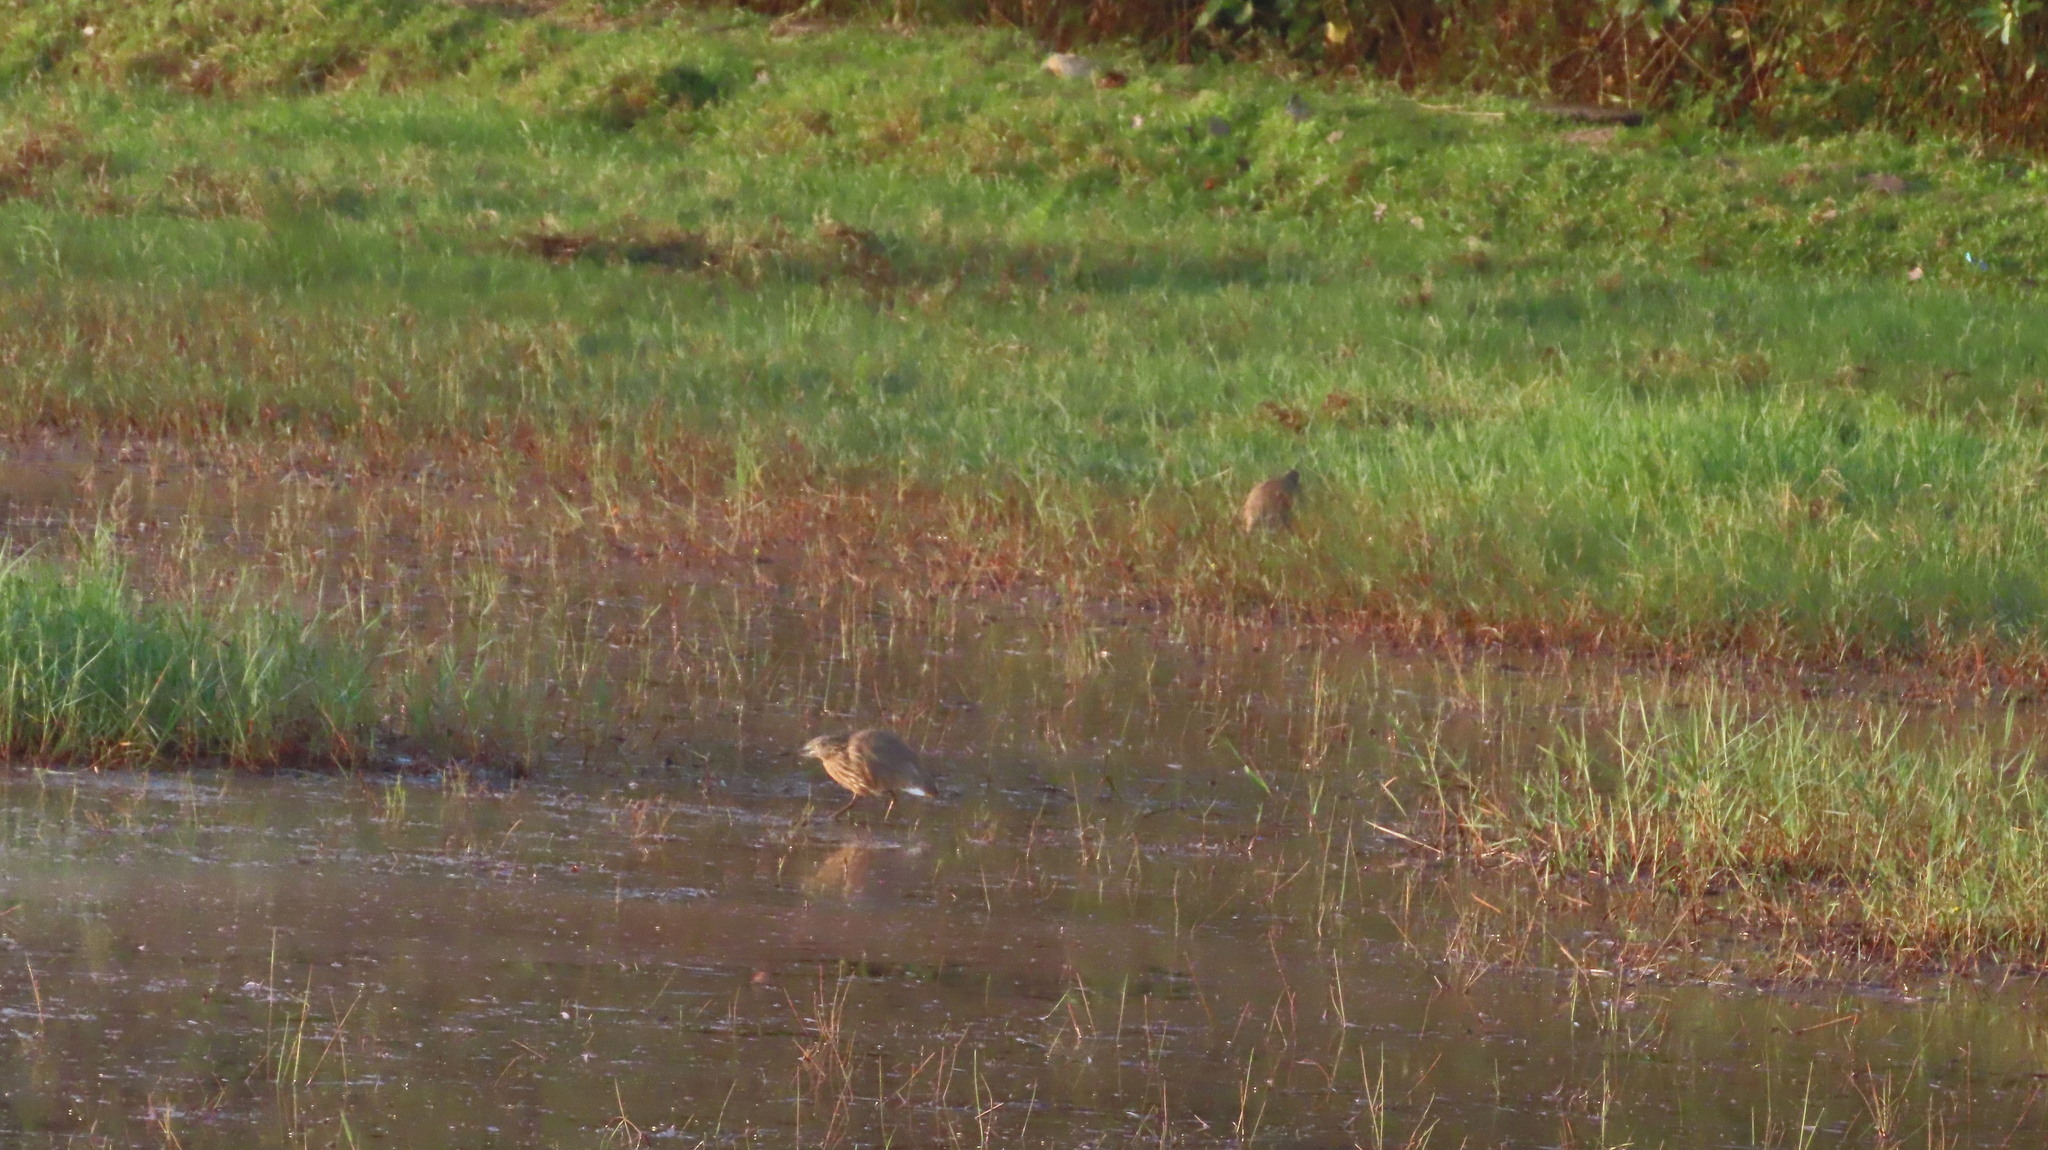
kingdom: Animalia
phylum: Chordata
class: Aves
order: Pelecaniformes
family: Ardeidae
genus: Ardeola
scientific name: Ardeola grayii
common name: Indian pond heron
